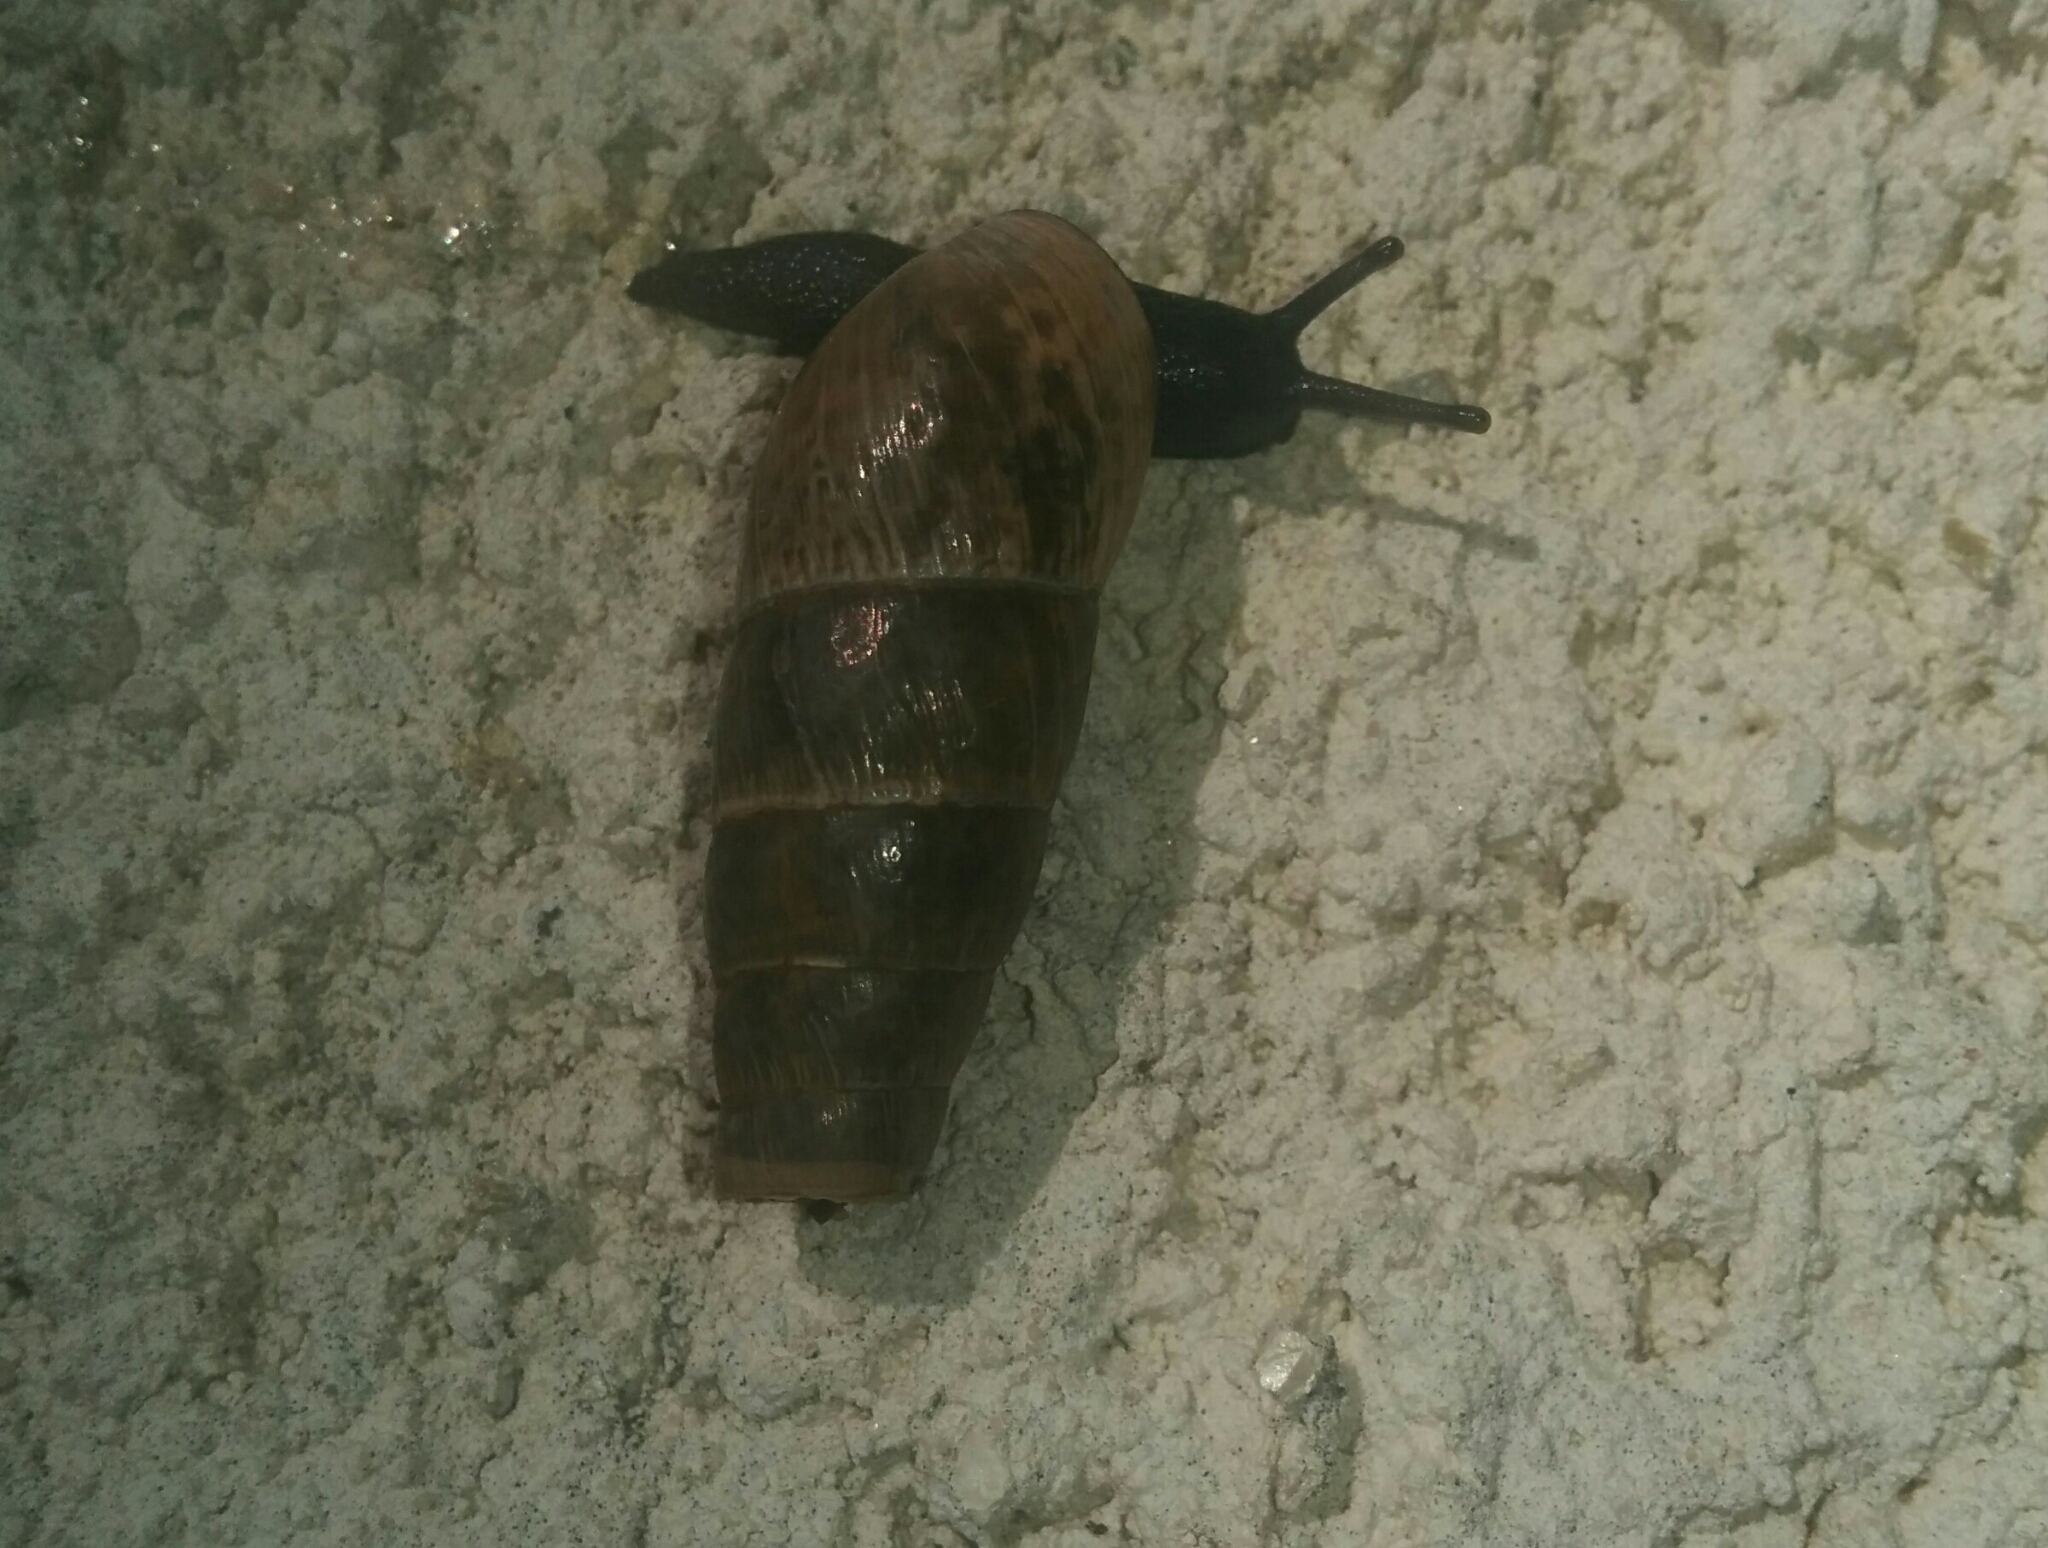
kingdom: Animalia
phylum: Mollusca
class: Gastropoda
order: Stylommatophora
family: Achatinidae
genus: Rumina
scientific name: Rumina decollata
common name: Decollate snail
